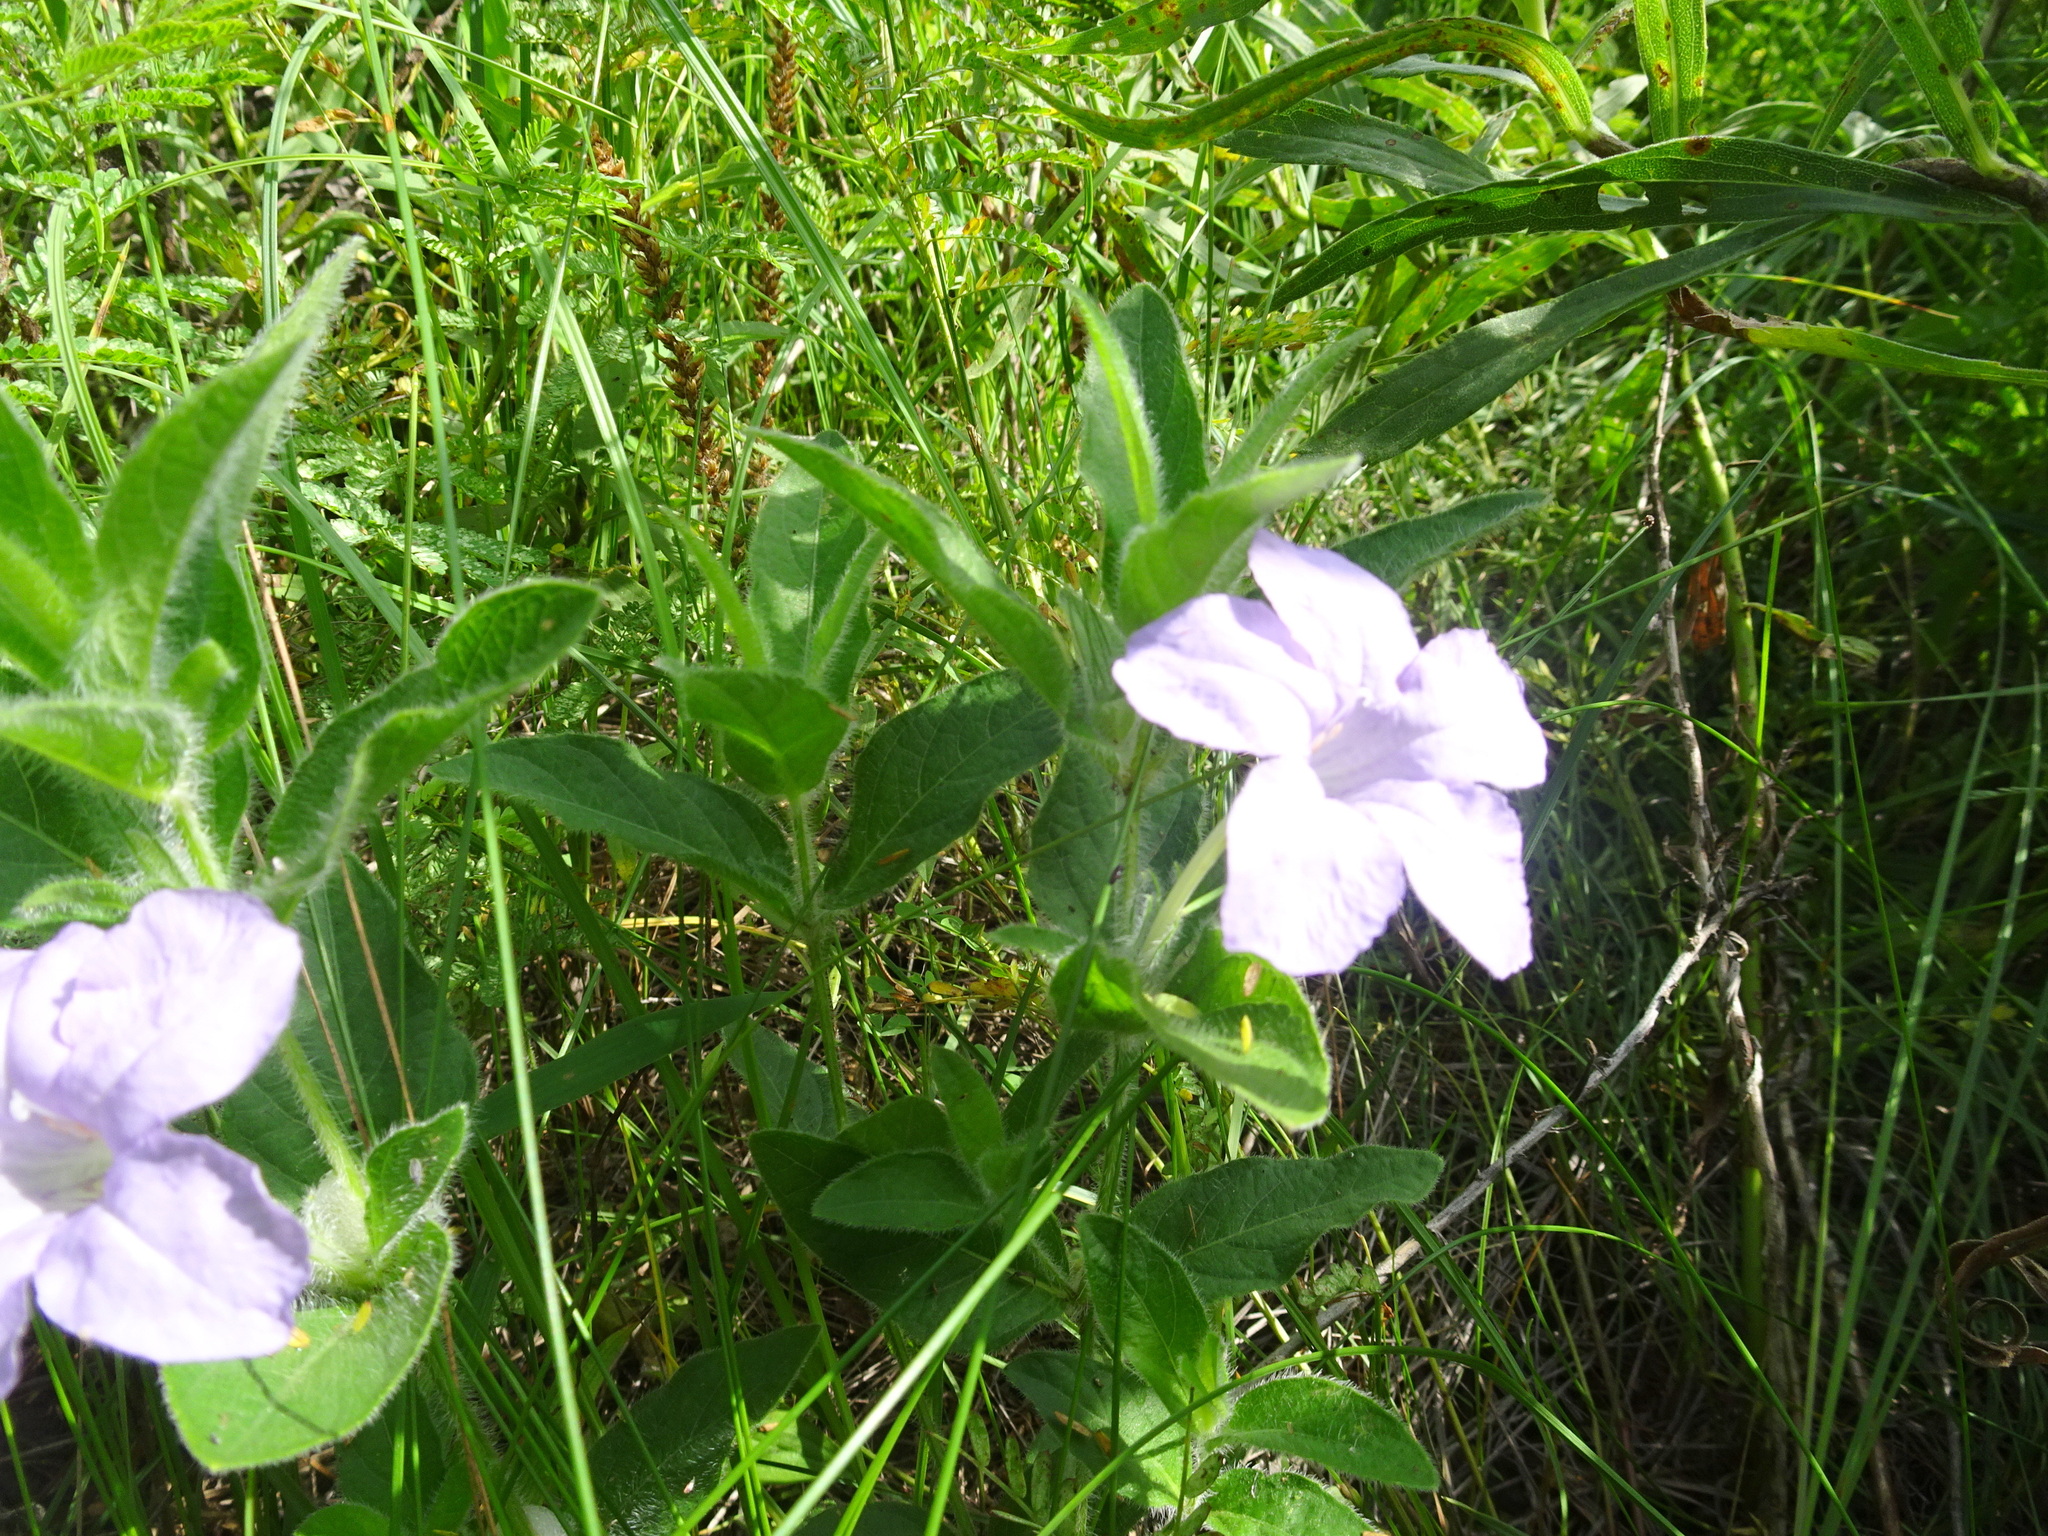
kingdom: Plantae
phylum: Tracheophyta
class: Magnoliopsida
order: Lamiales
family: Acanthaceae
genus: Ruellia
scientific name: Ruellia humilis
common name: Fringe-leaf ruellia
